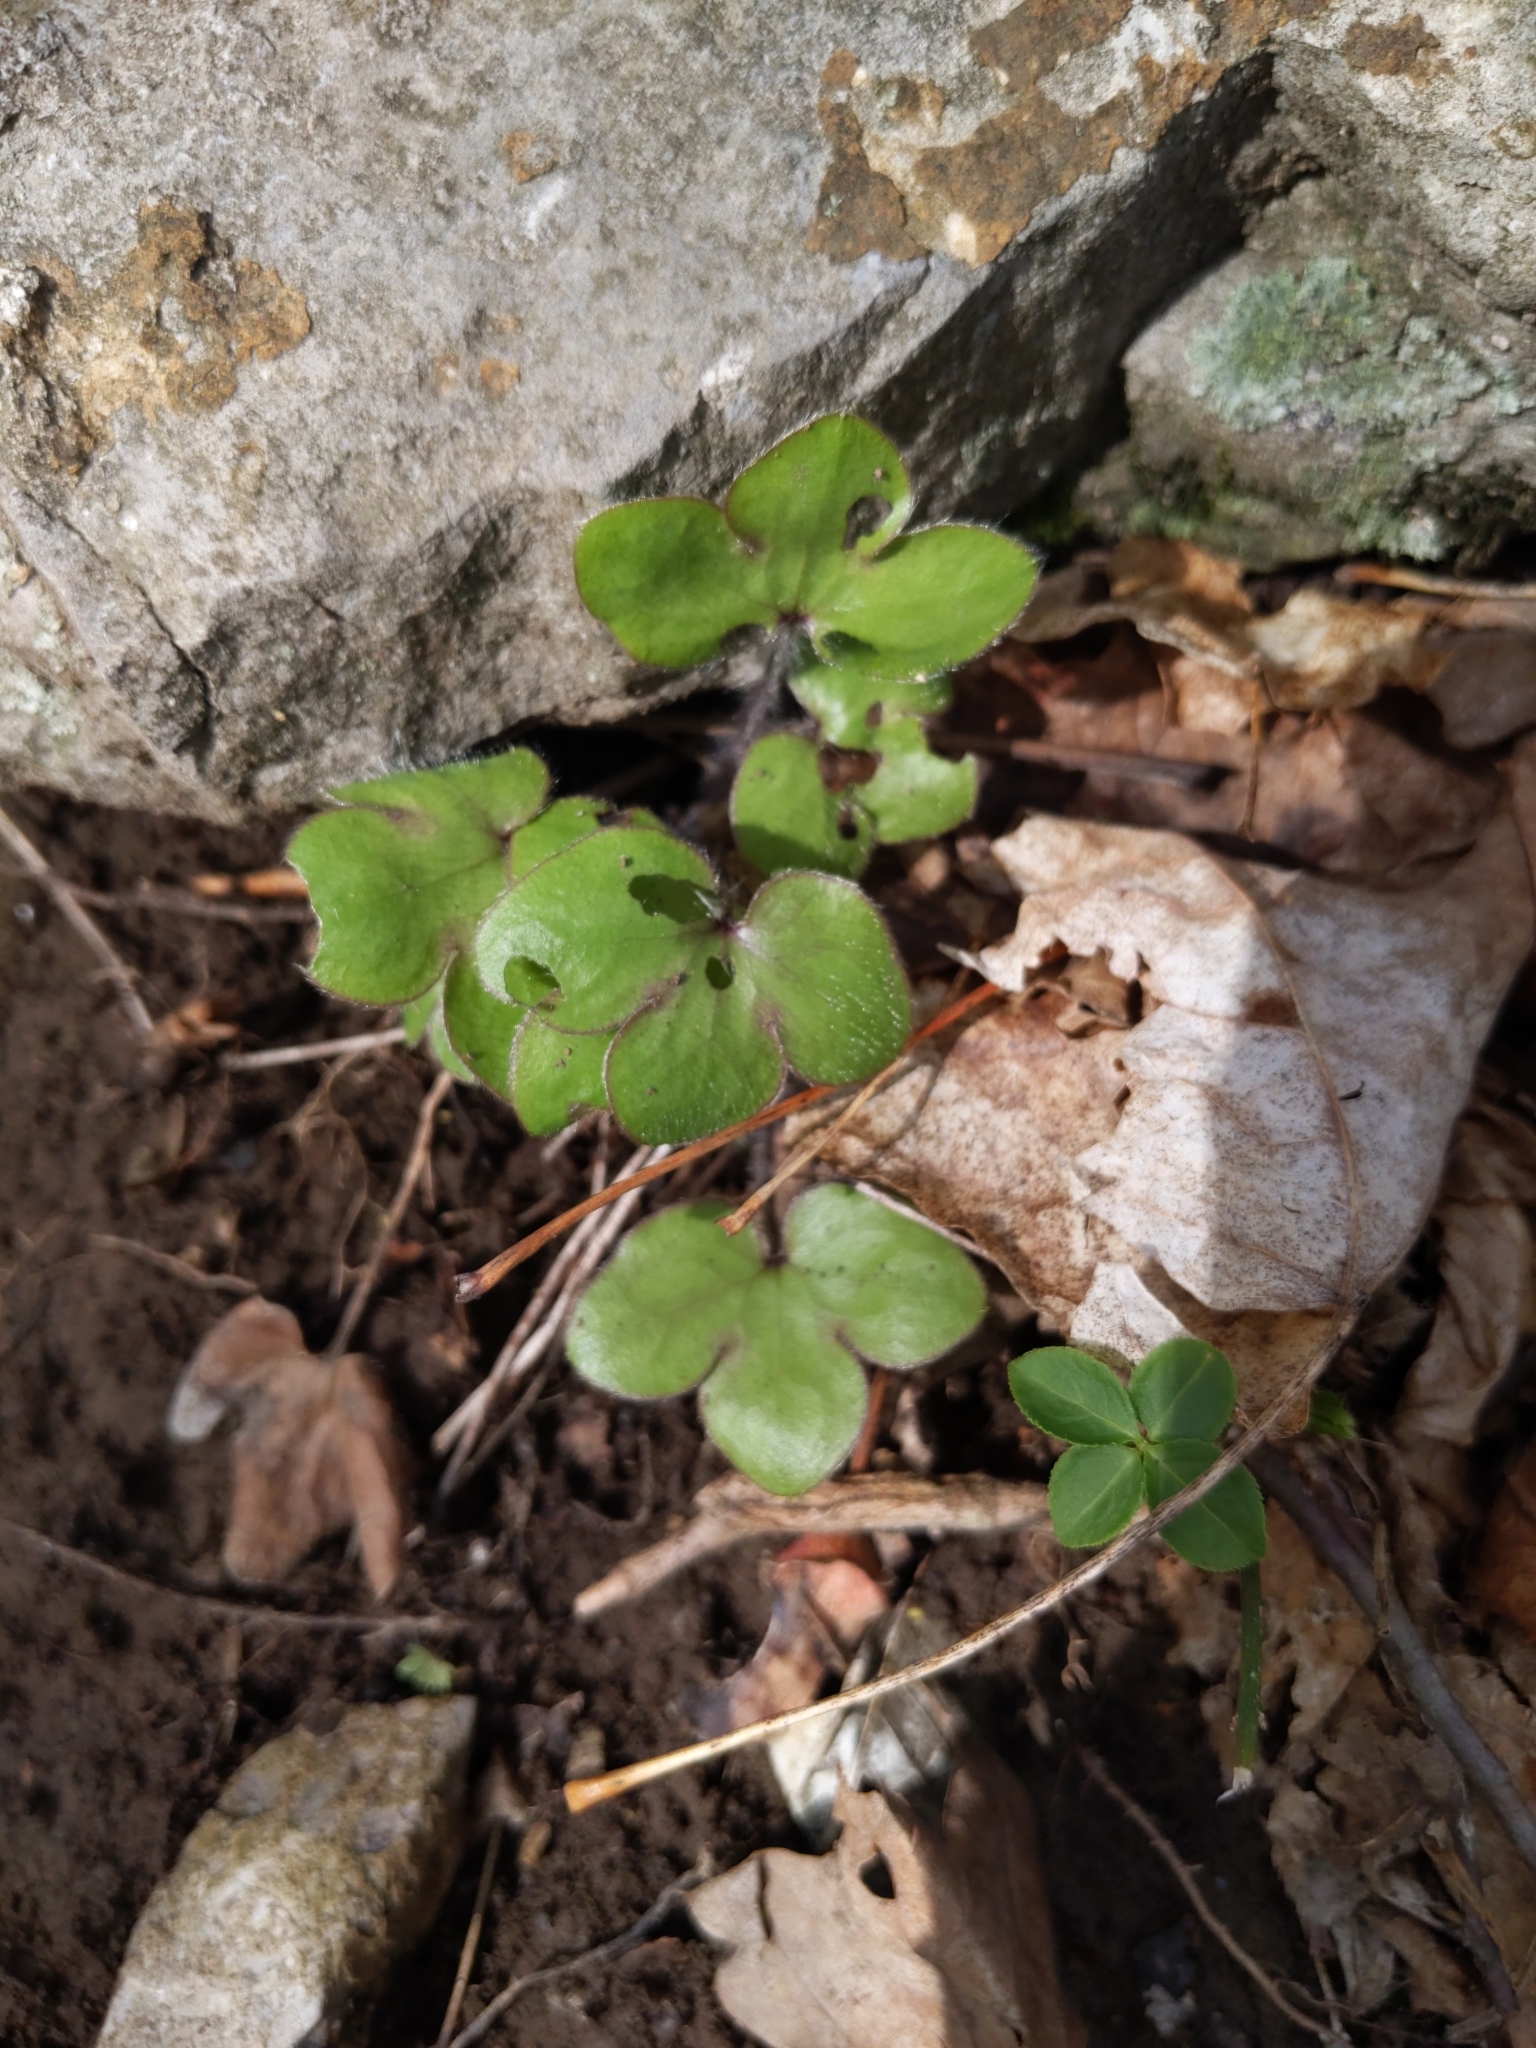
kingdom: Plantae
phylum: Tracheophyta
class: Magnoliopsida
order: Ranunculales
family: Ranunculaceae
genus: Hepatica
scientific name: Hepatica americana
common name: American hepatica
